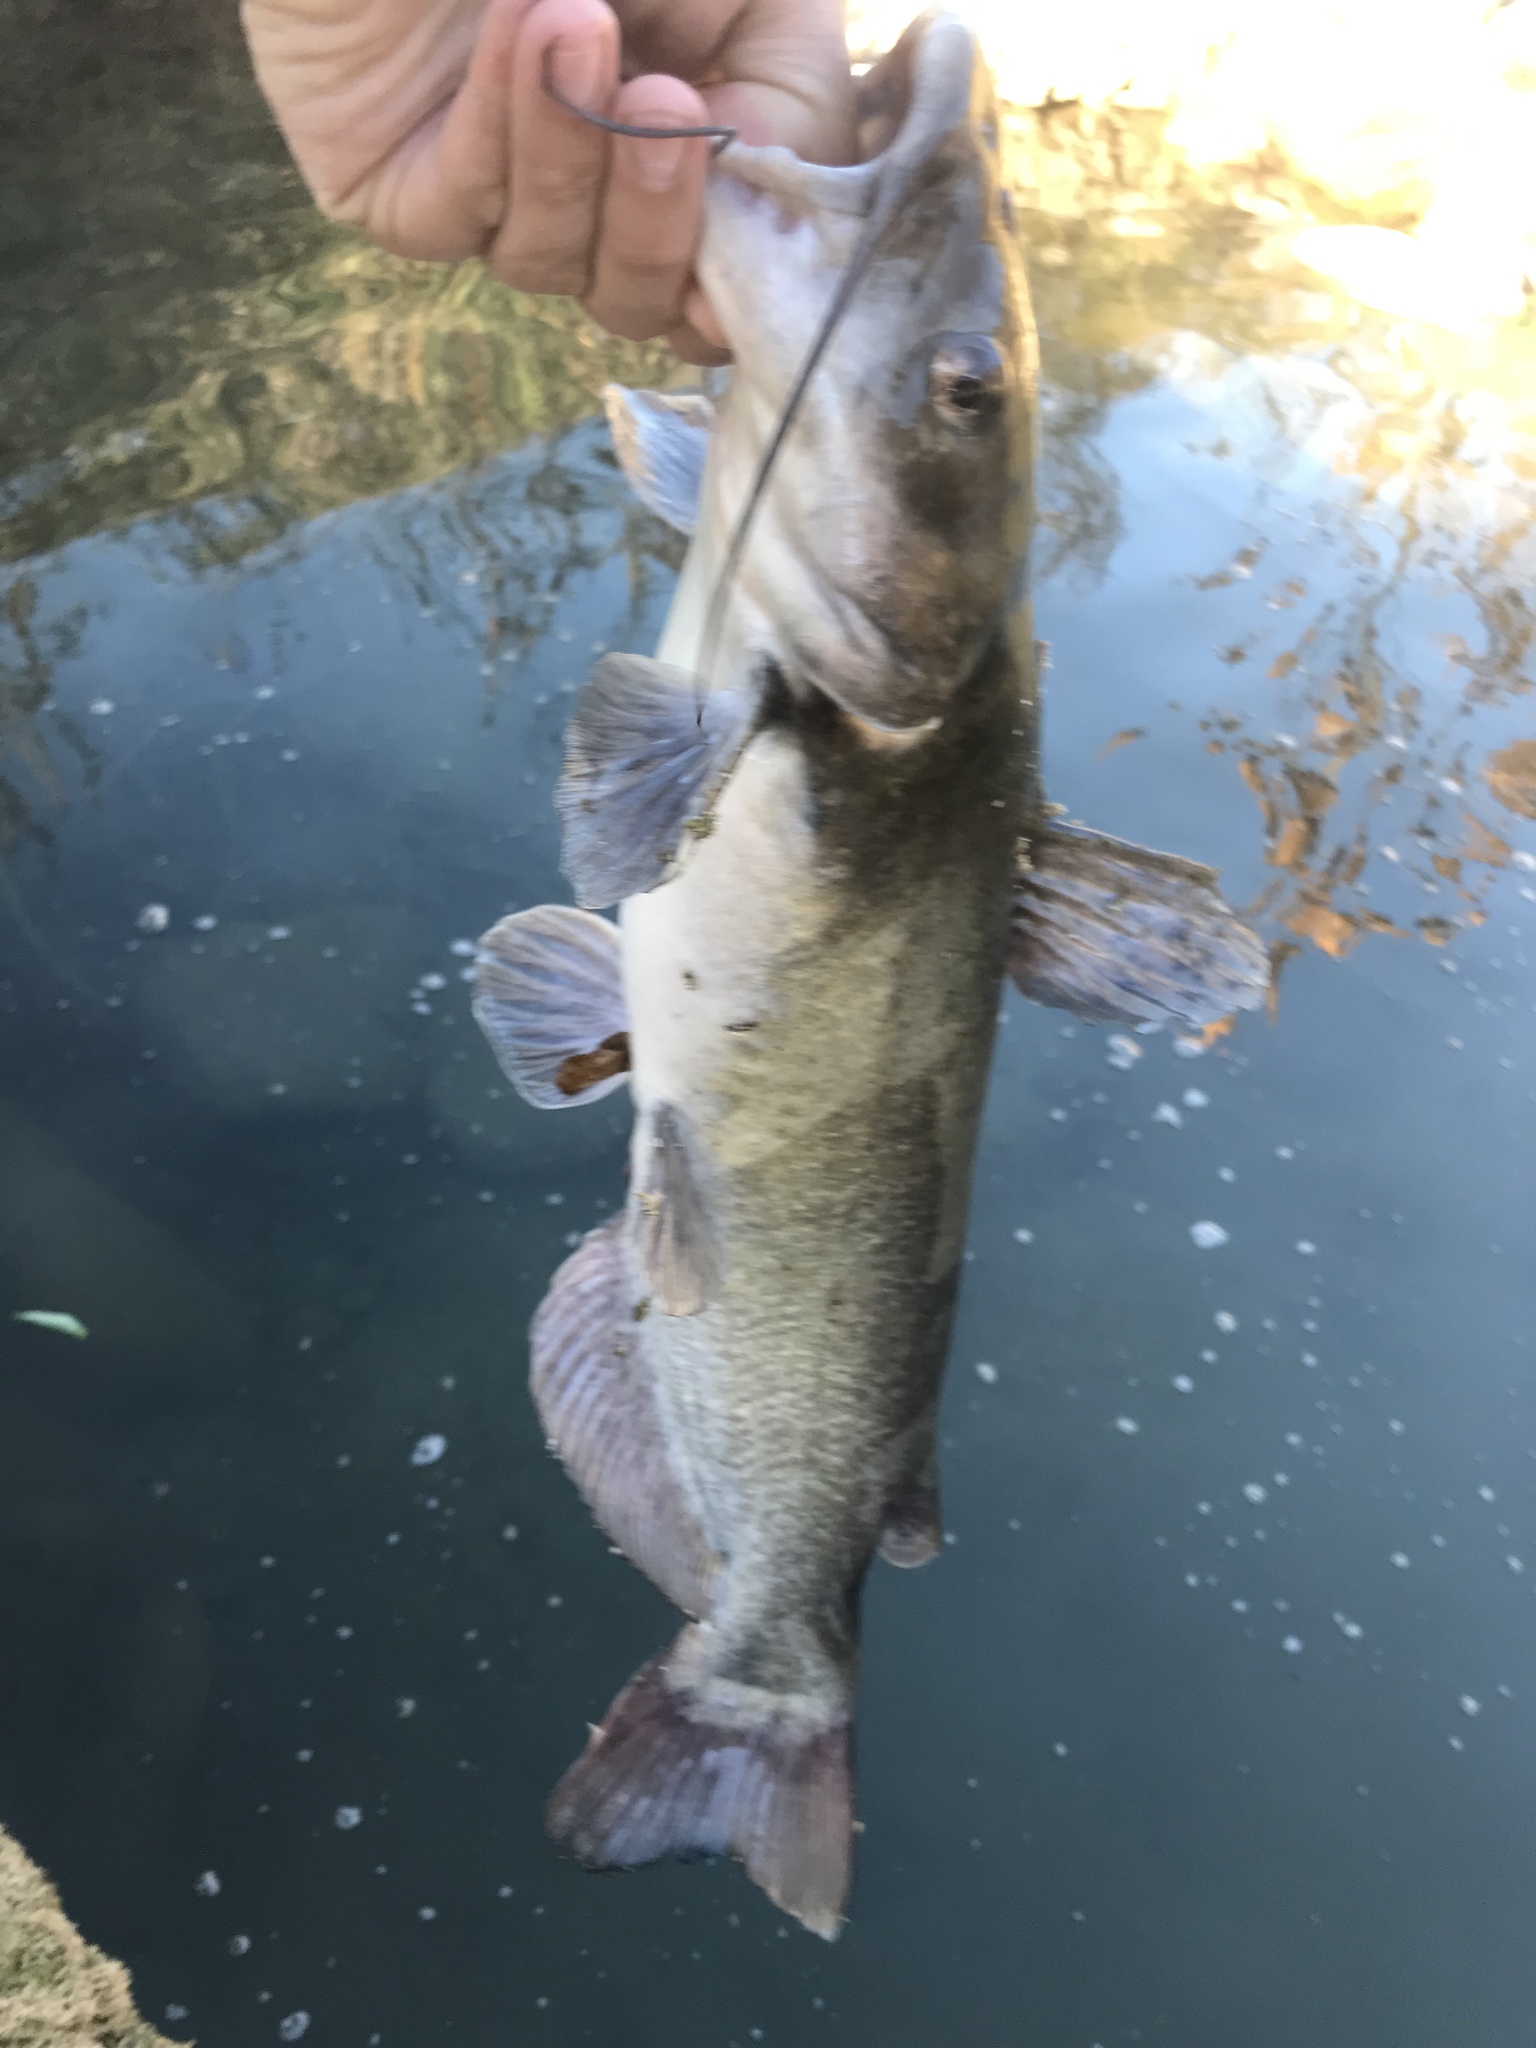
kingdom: Animalia
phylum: Chordata
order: Siluriformes
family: Ictaluridae
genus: Ictalurus
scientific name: Ictalurus punctatus
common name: Channel catfish
